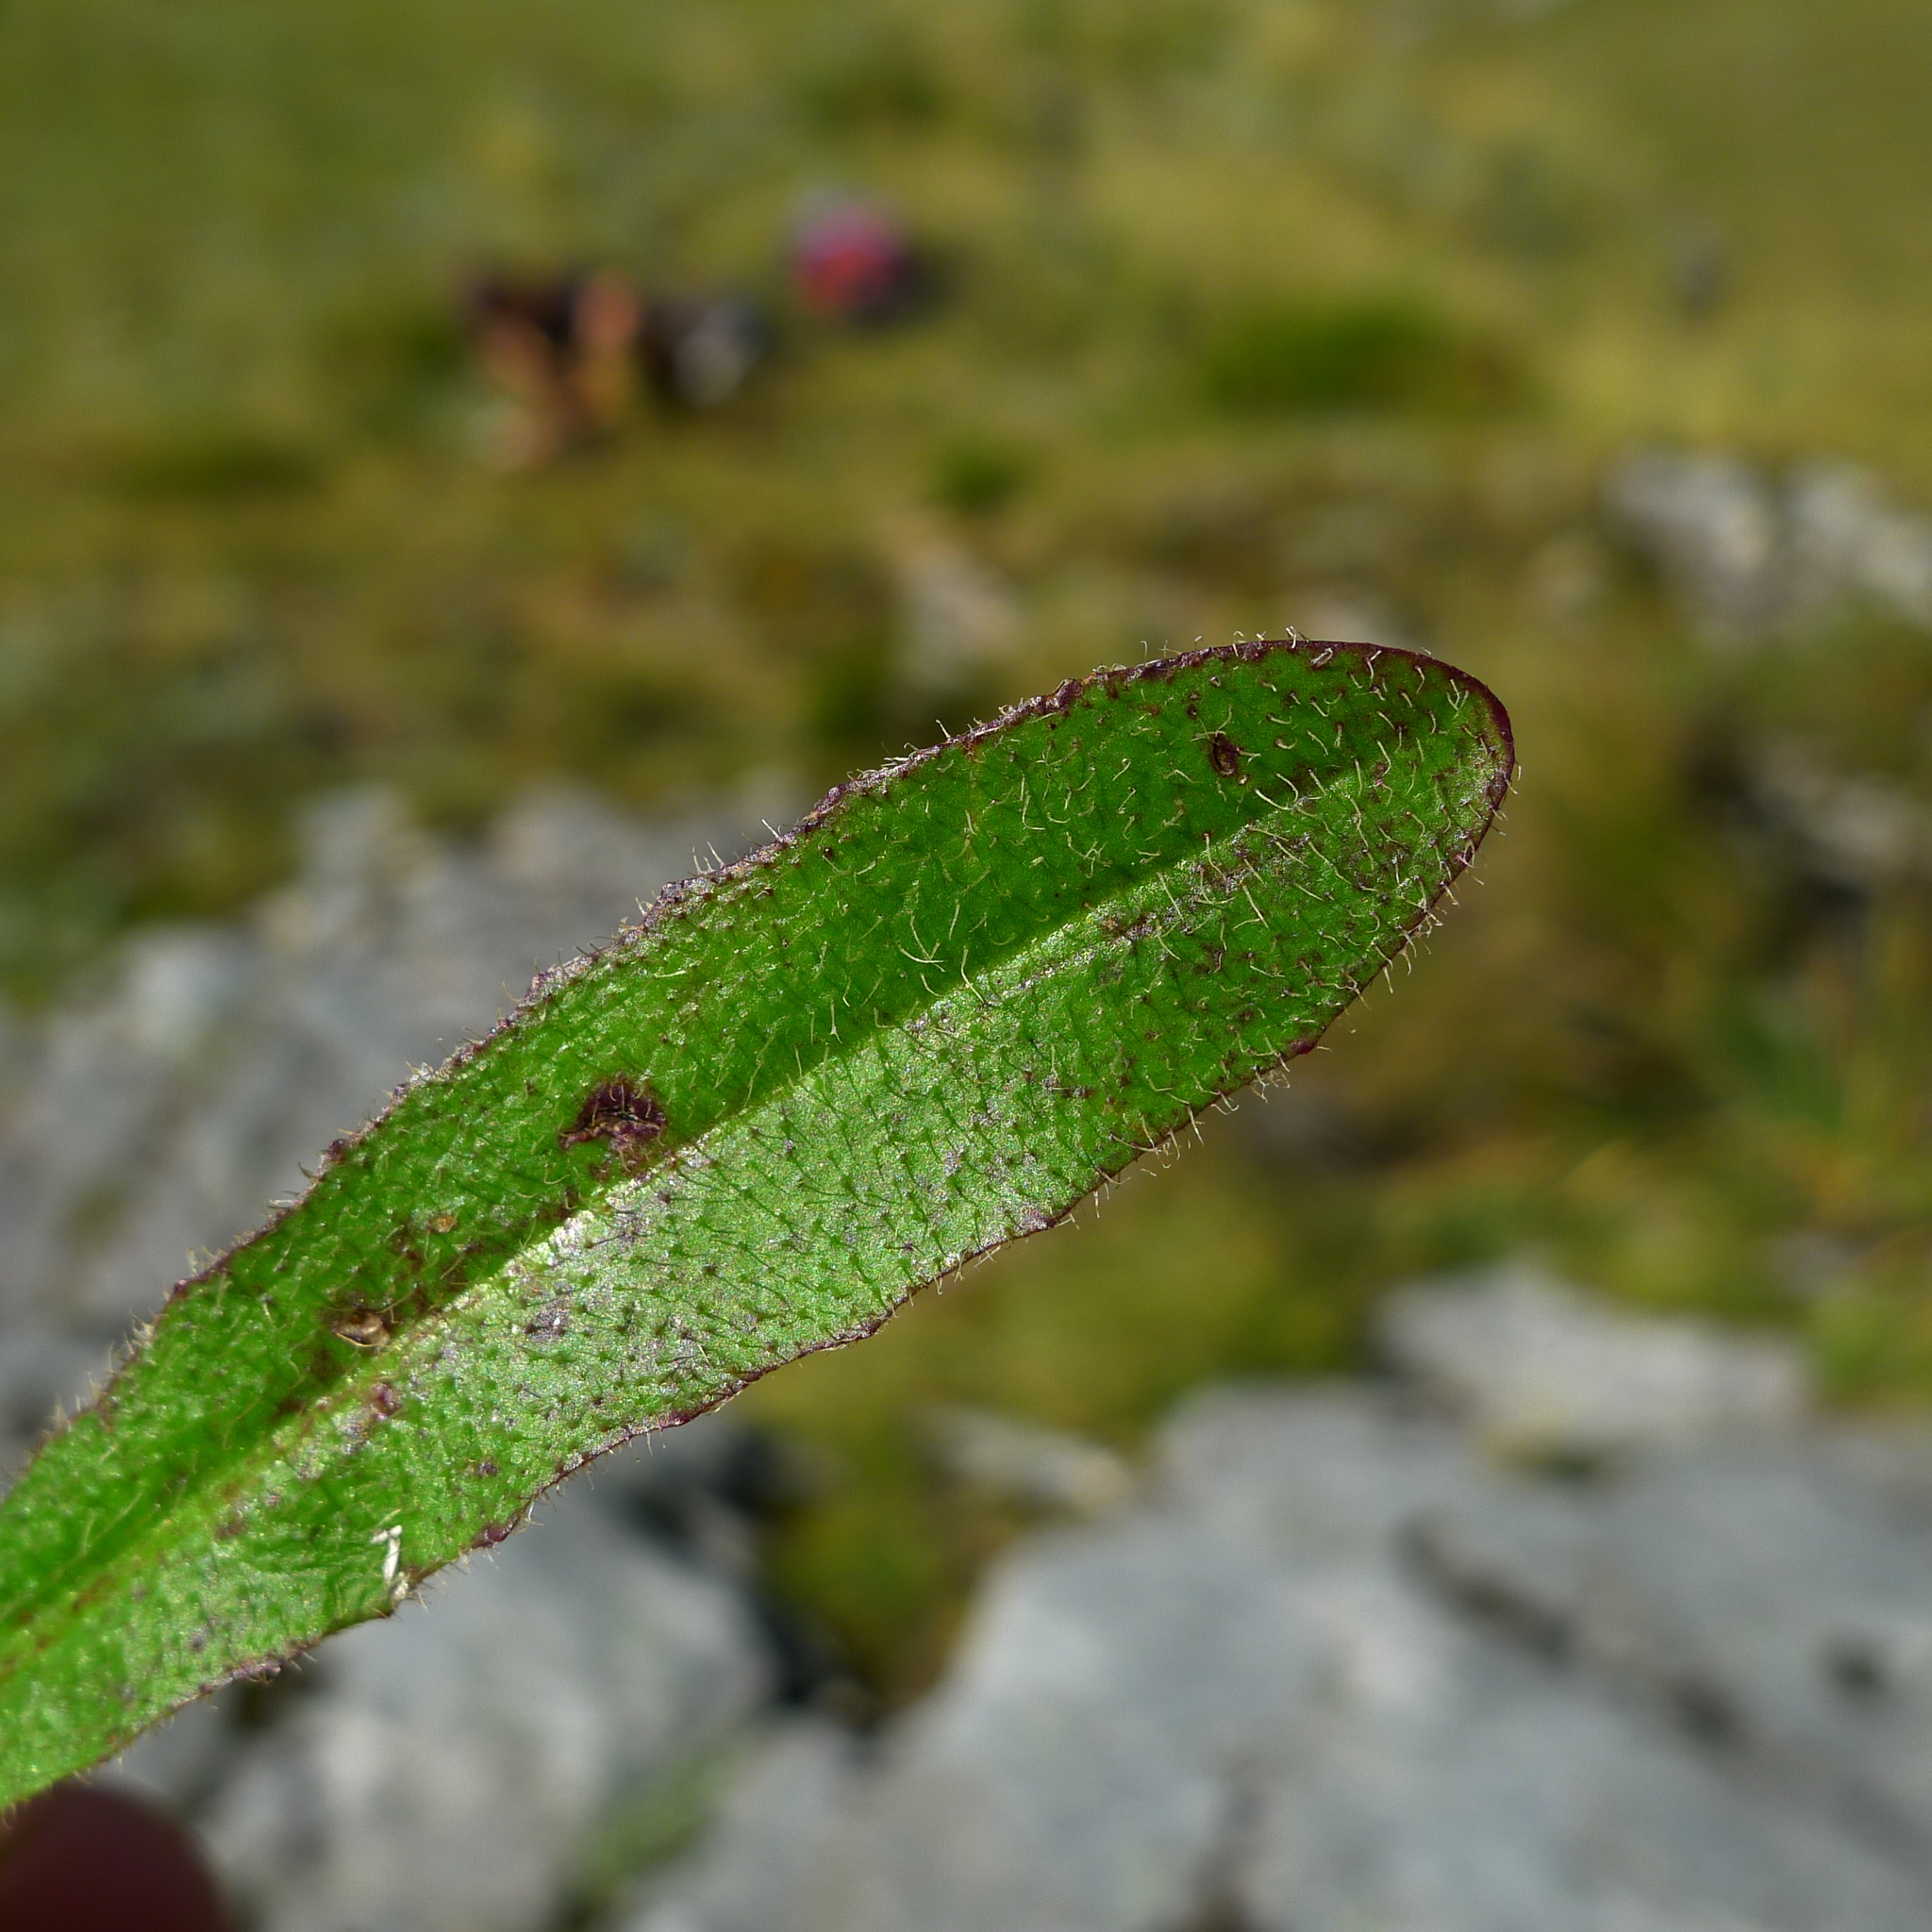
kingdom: Plantae
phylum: Tracheophyta
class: Magnoliopsida
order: Asterales
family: Asteraceae
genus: Hypochaeris
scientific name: Hypochaeris radicata
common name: Flatweed
